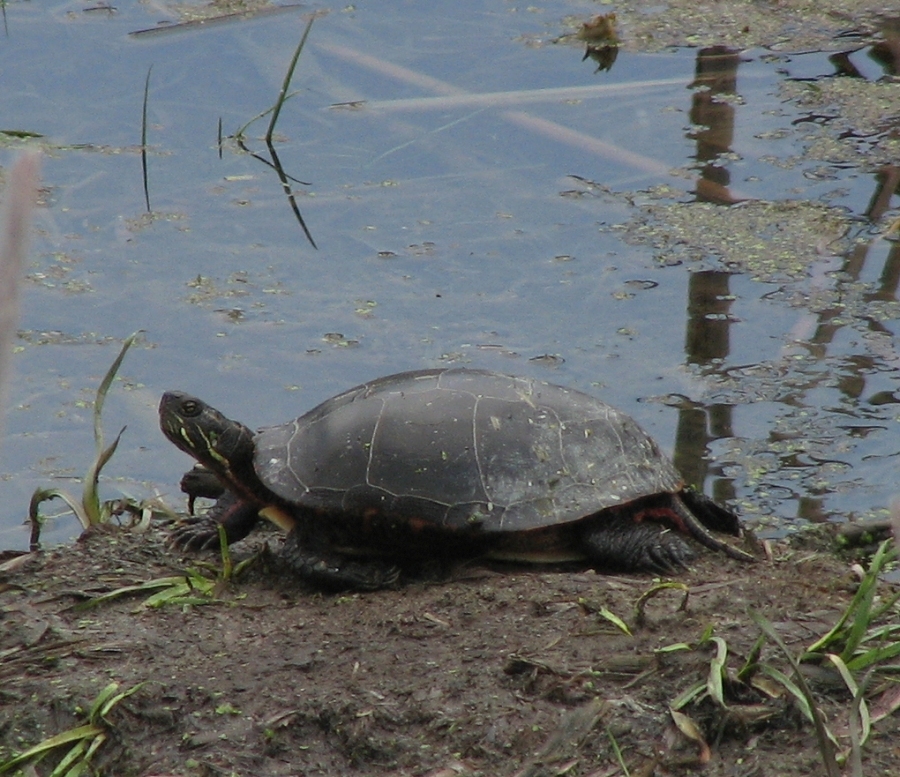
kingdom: Animalia
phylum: Chordata
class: Testudines
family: Emydidae
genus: Chrysemys
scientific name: Chrysemys picta
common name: Painted turtle
